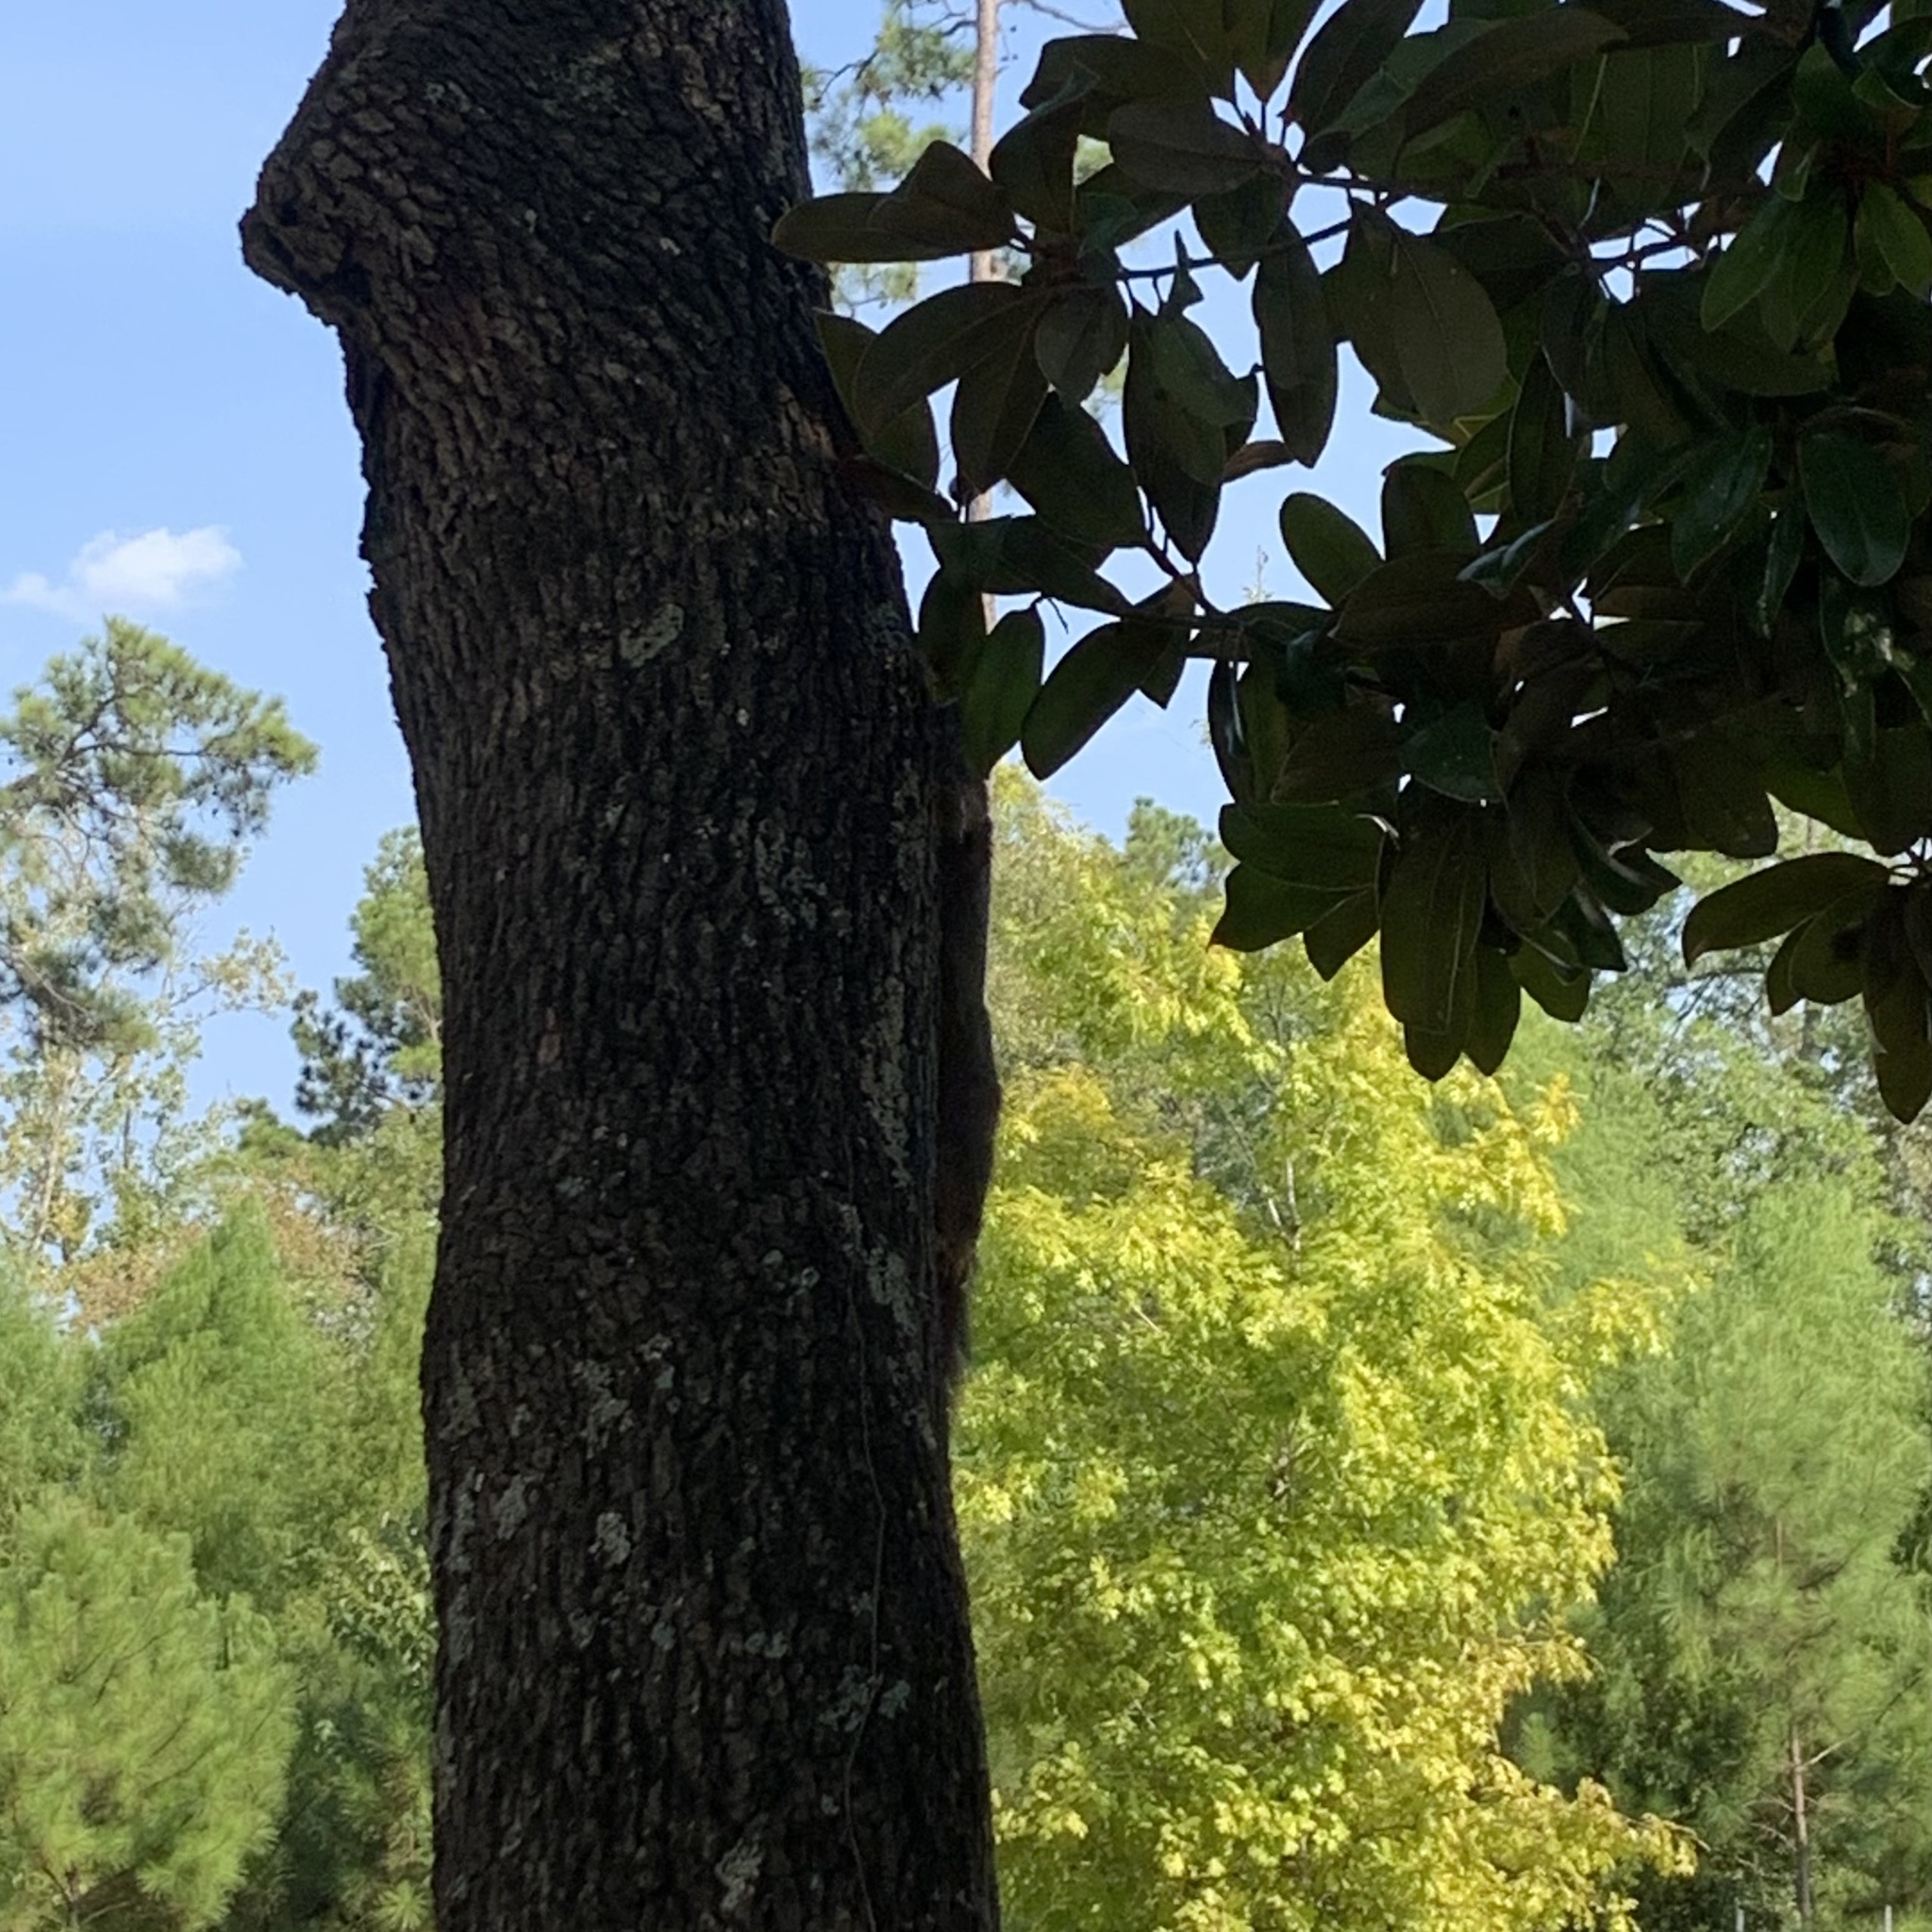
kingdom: Animalia
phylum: Chordata
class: Mammalia
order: Rodentia
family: Sciuridae
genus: Sciurus
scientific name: Sciurus niger
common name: Fox squirrel
